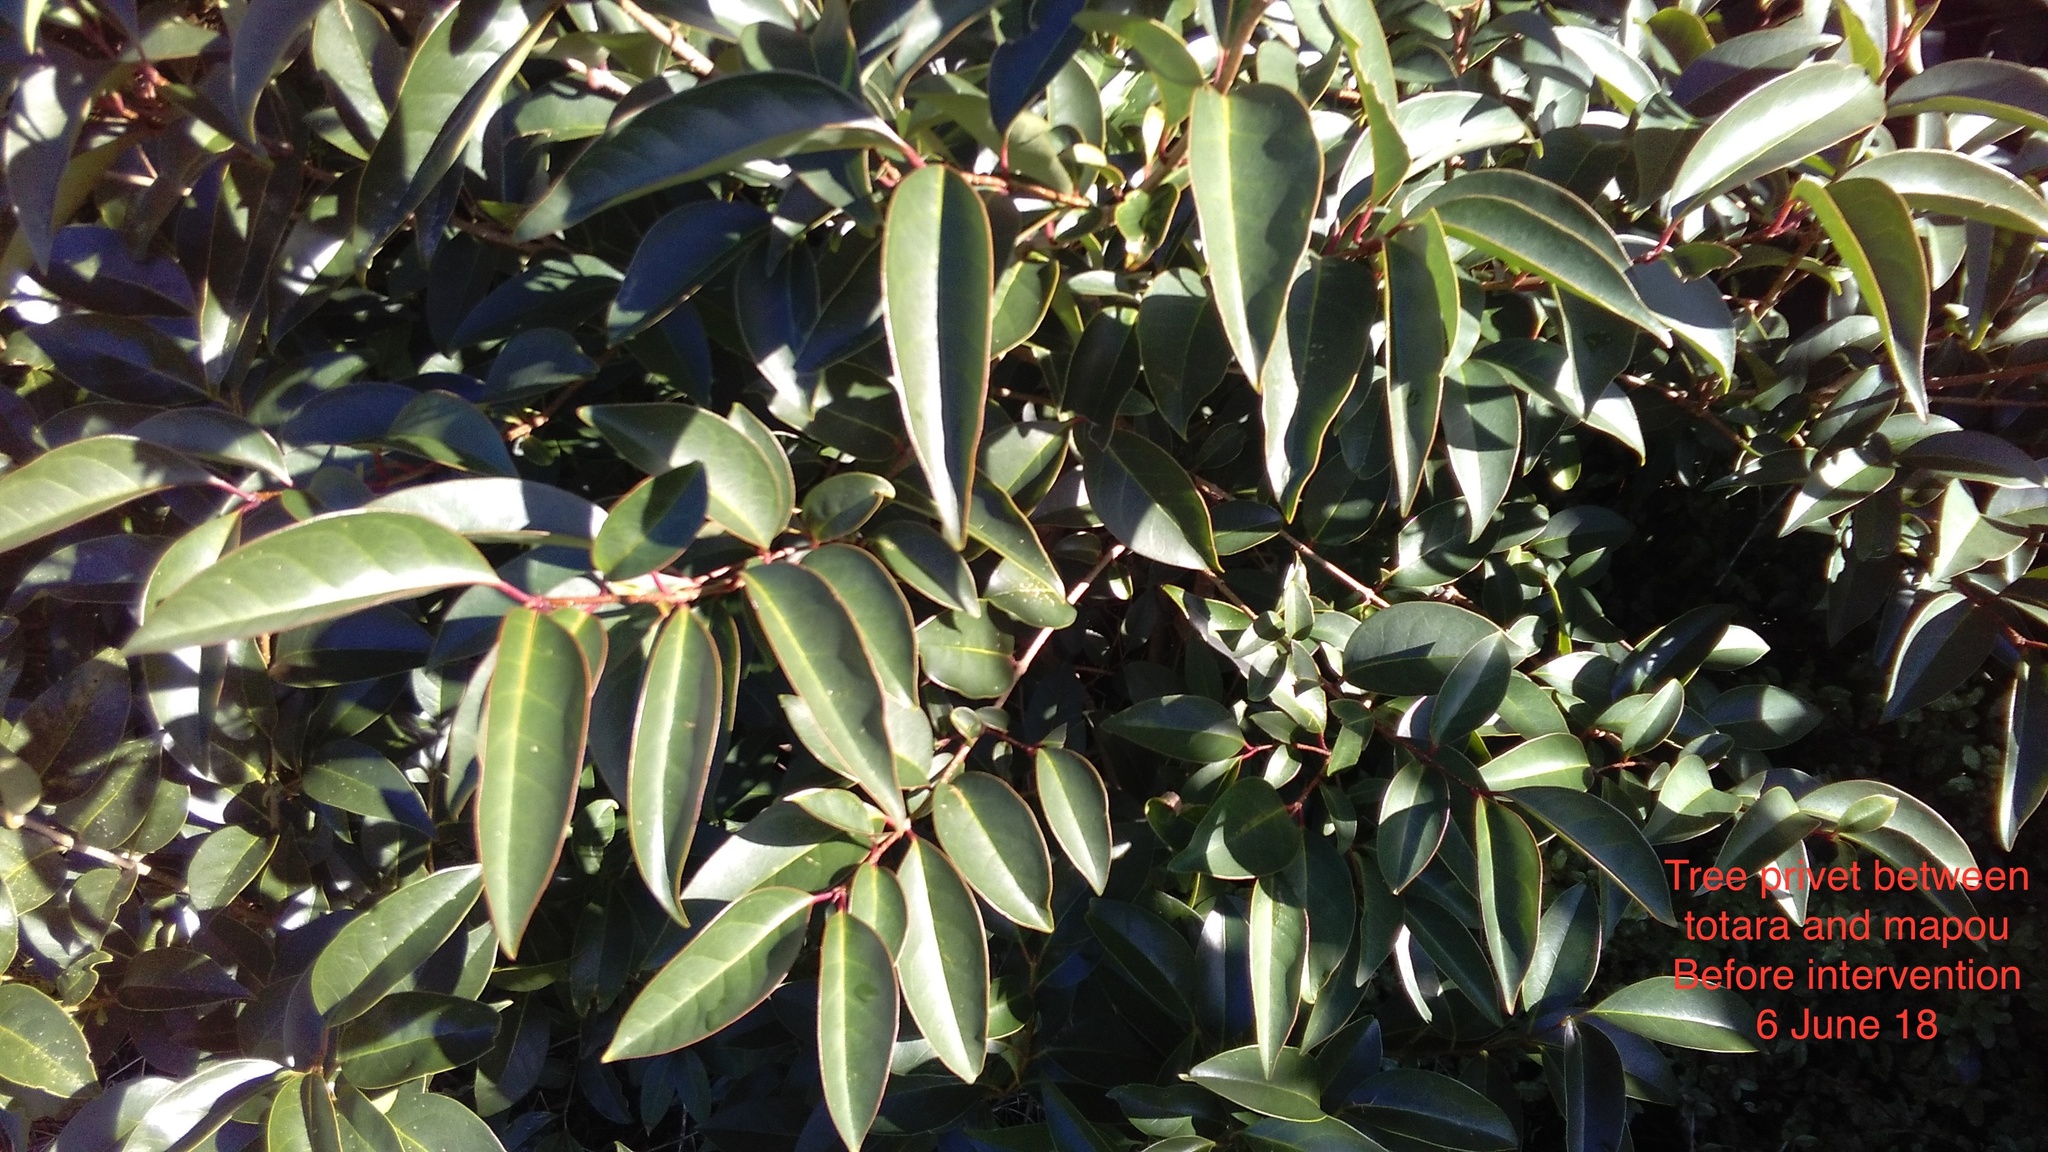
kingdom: Plantae
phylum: Tracheophyta
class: Magnoliopsida
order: Lamiales
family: Oleaceae
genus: Ligustrum
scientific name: Ligustrum lucidum
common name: Glossy privet
